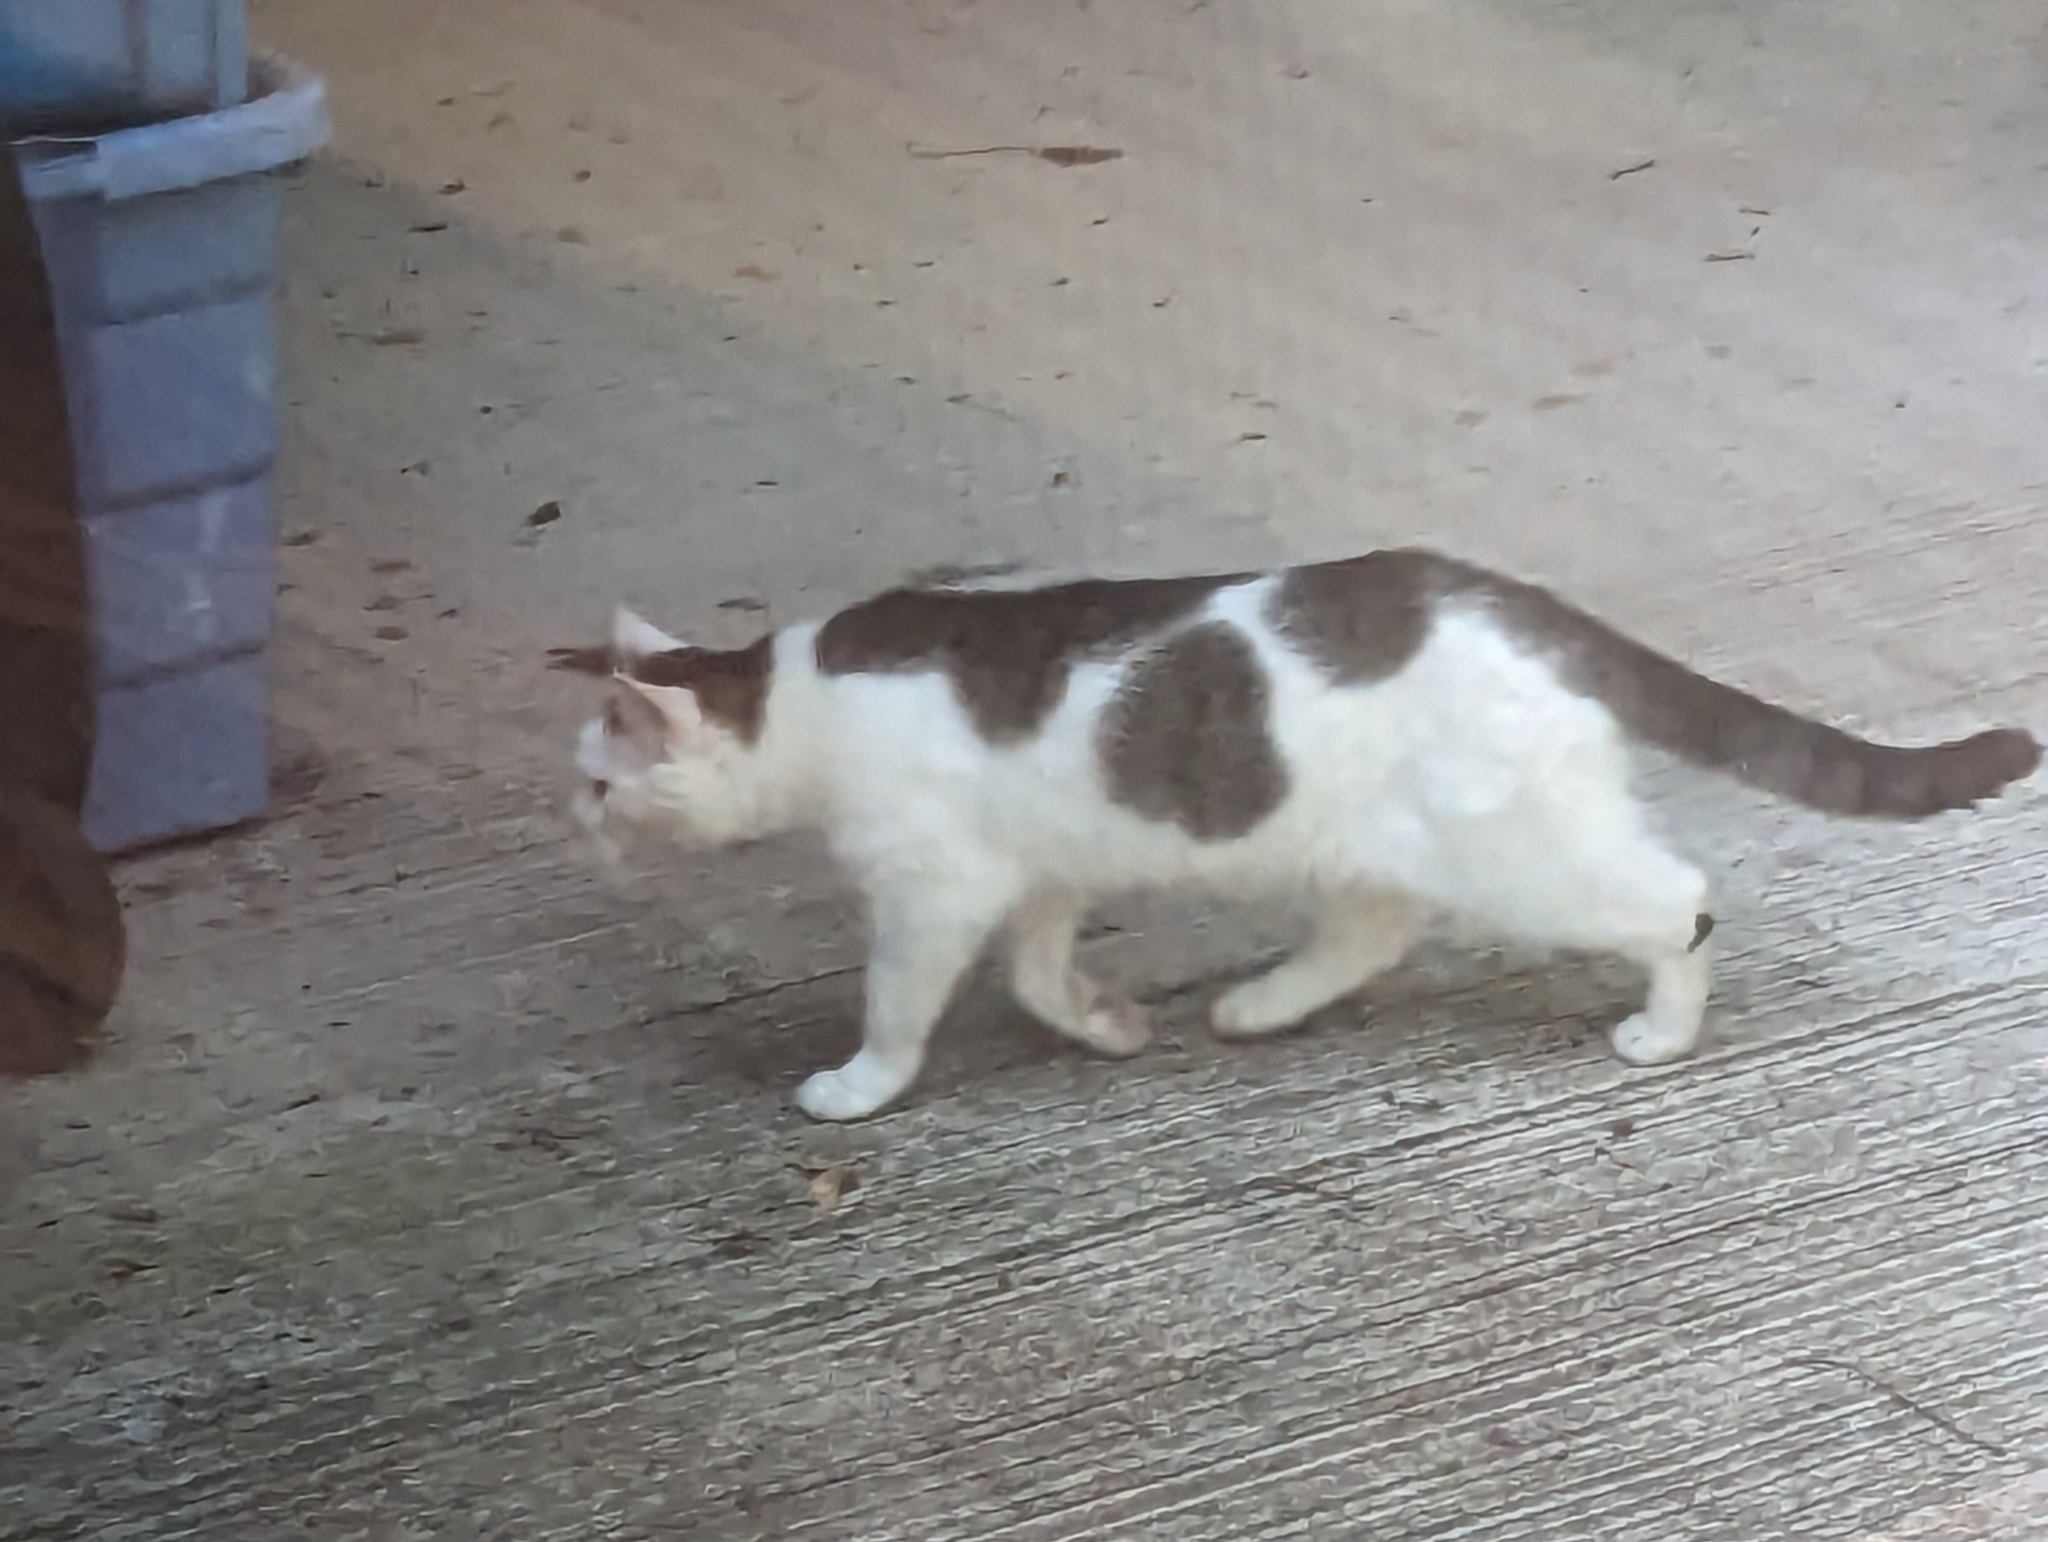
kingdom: Animalia
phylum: Chordata
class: Mammalia
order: Carnivora
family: Felidae
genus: Felis
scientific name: Felis catus
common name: Domestic cat
